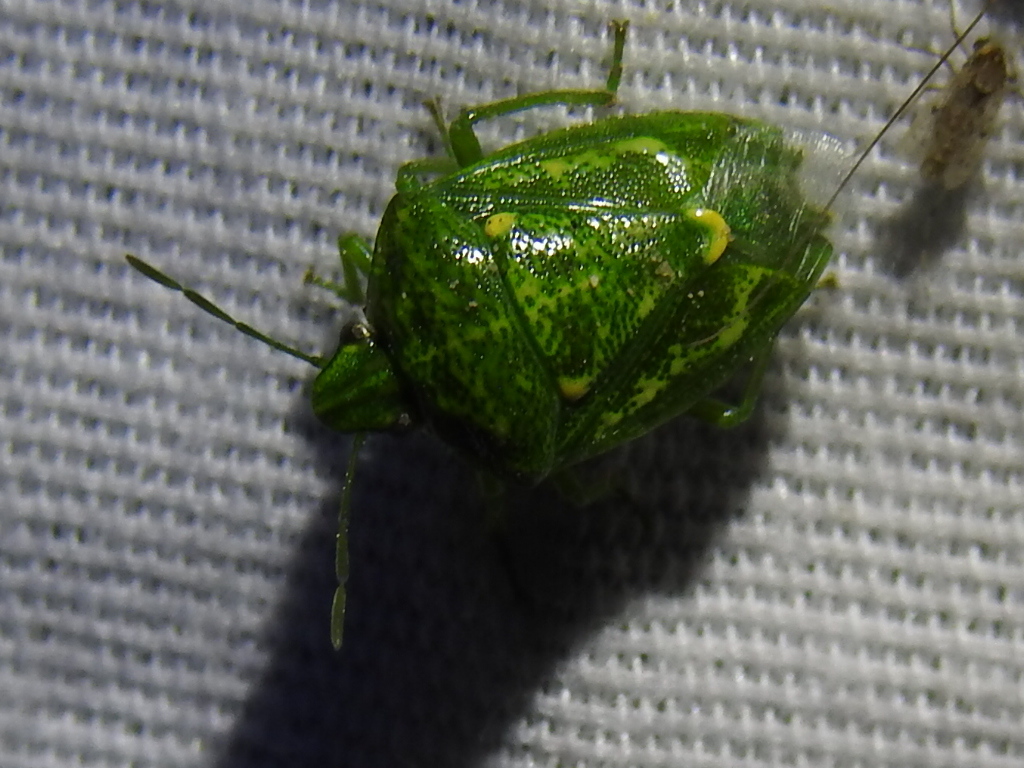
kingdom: Animalia
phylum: Arthropoda
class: Insecta
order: Hemiptera
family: Pentatomidae
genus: Banasa
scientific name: Banasa euchlora
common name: Cedar berry bug
